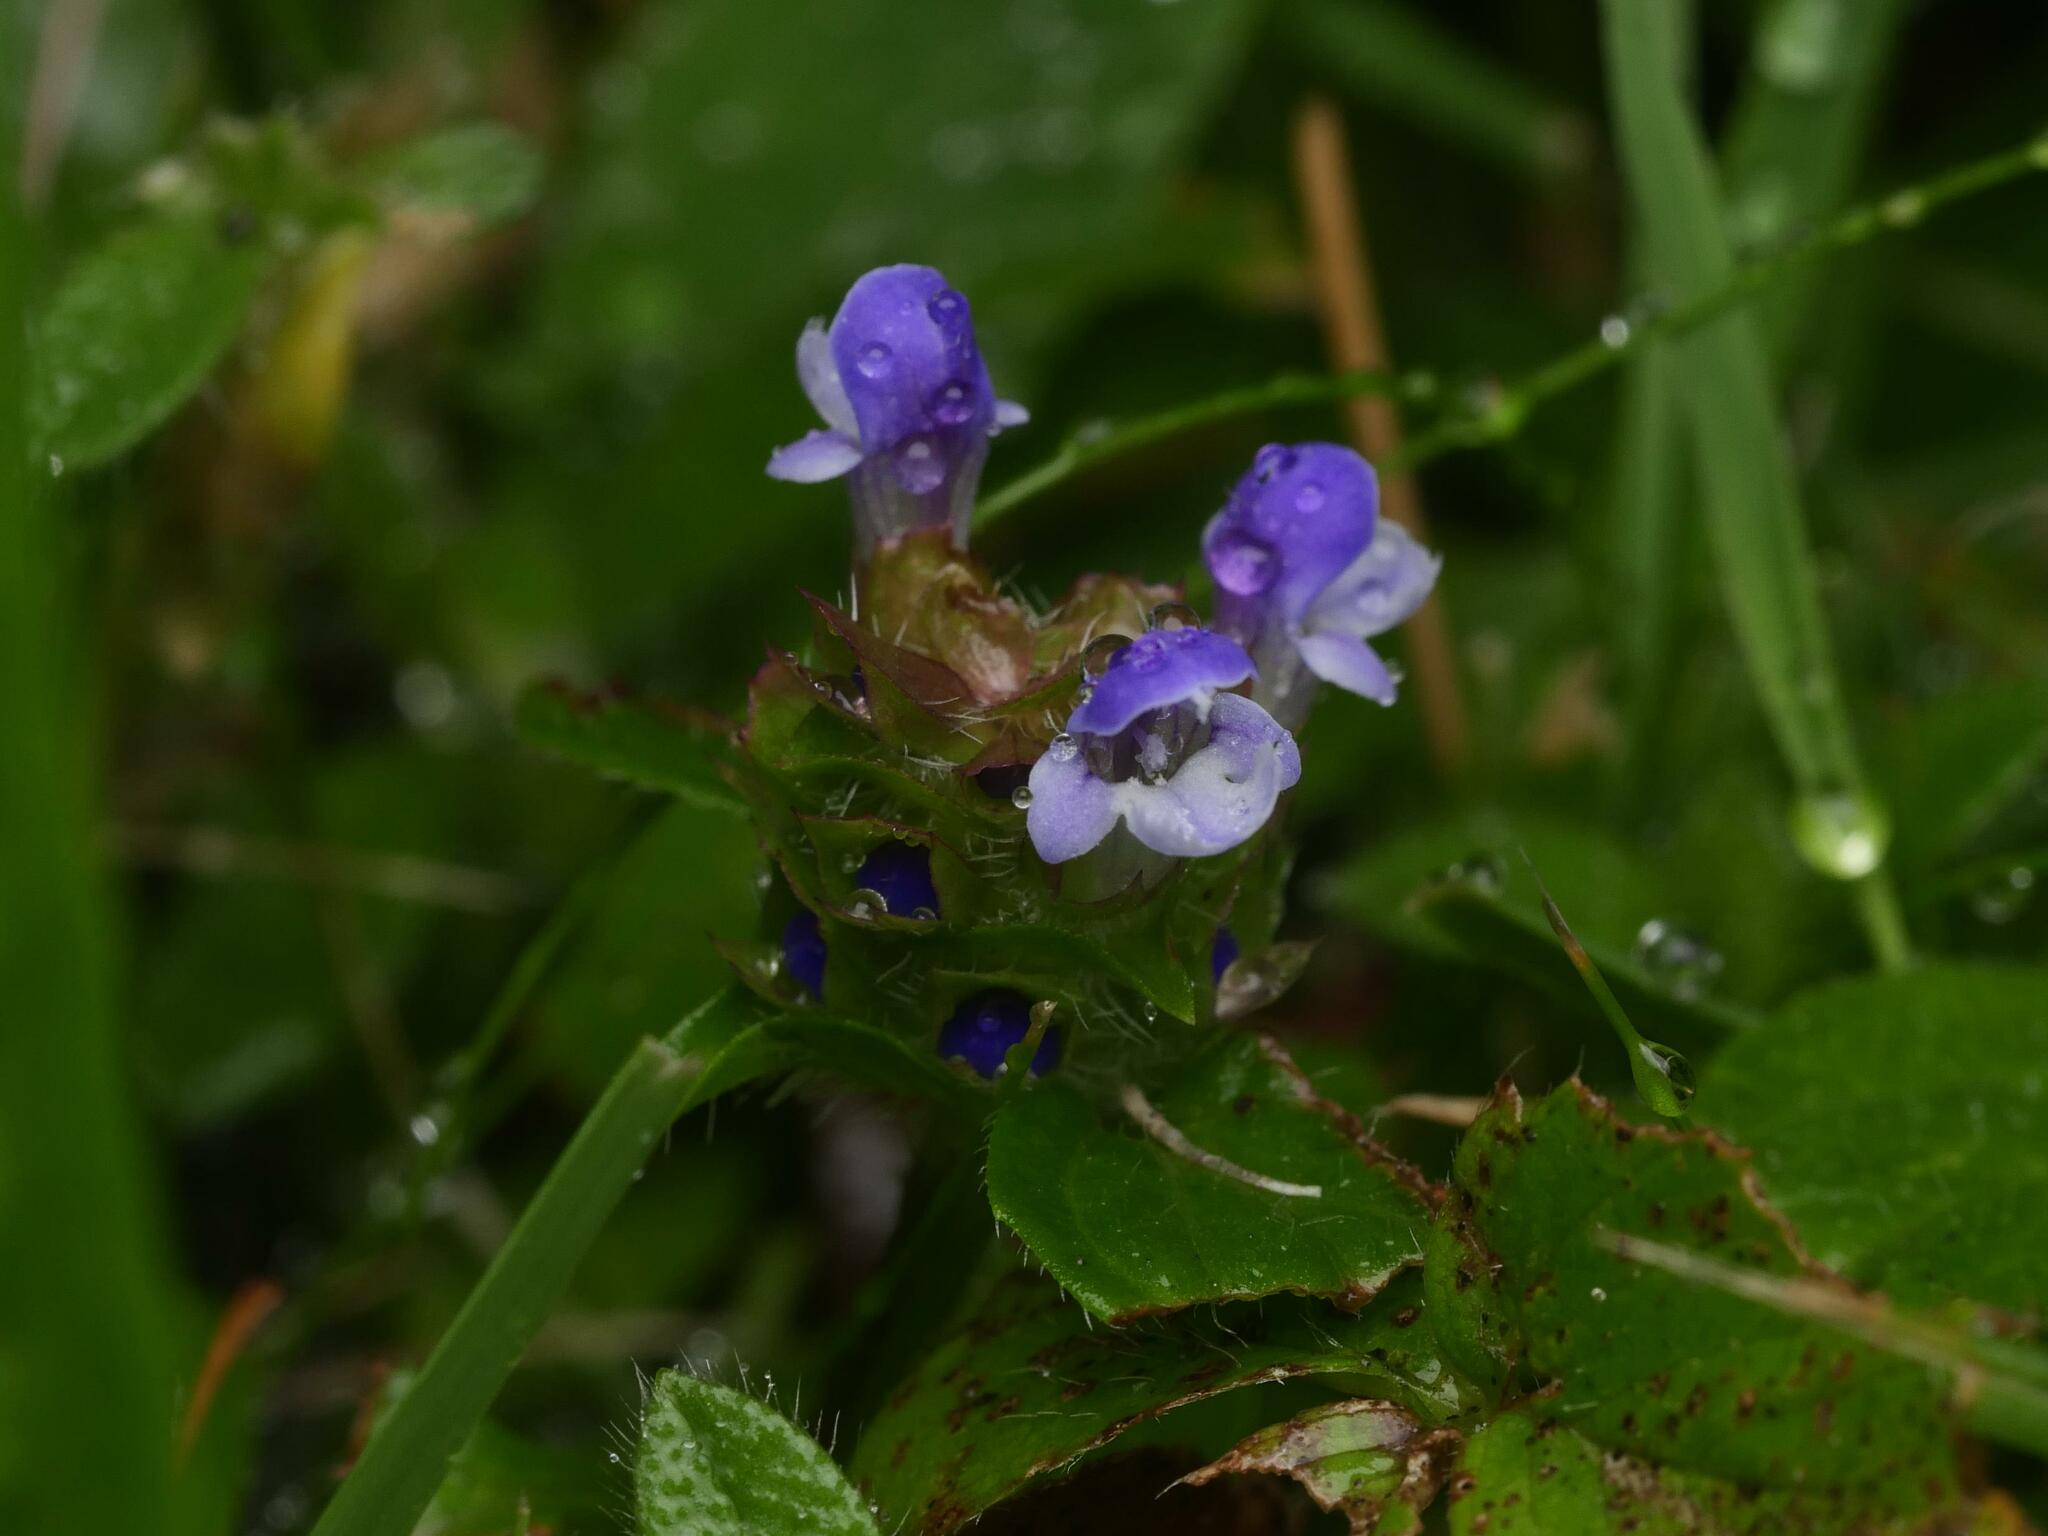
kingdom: Plantae
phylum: Tracheophyta
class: Magnoliopsida
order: Lamiales
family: Lamiaceae
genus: Prunella
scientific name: Prunella vulgaris
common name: Heal-all
